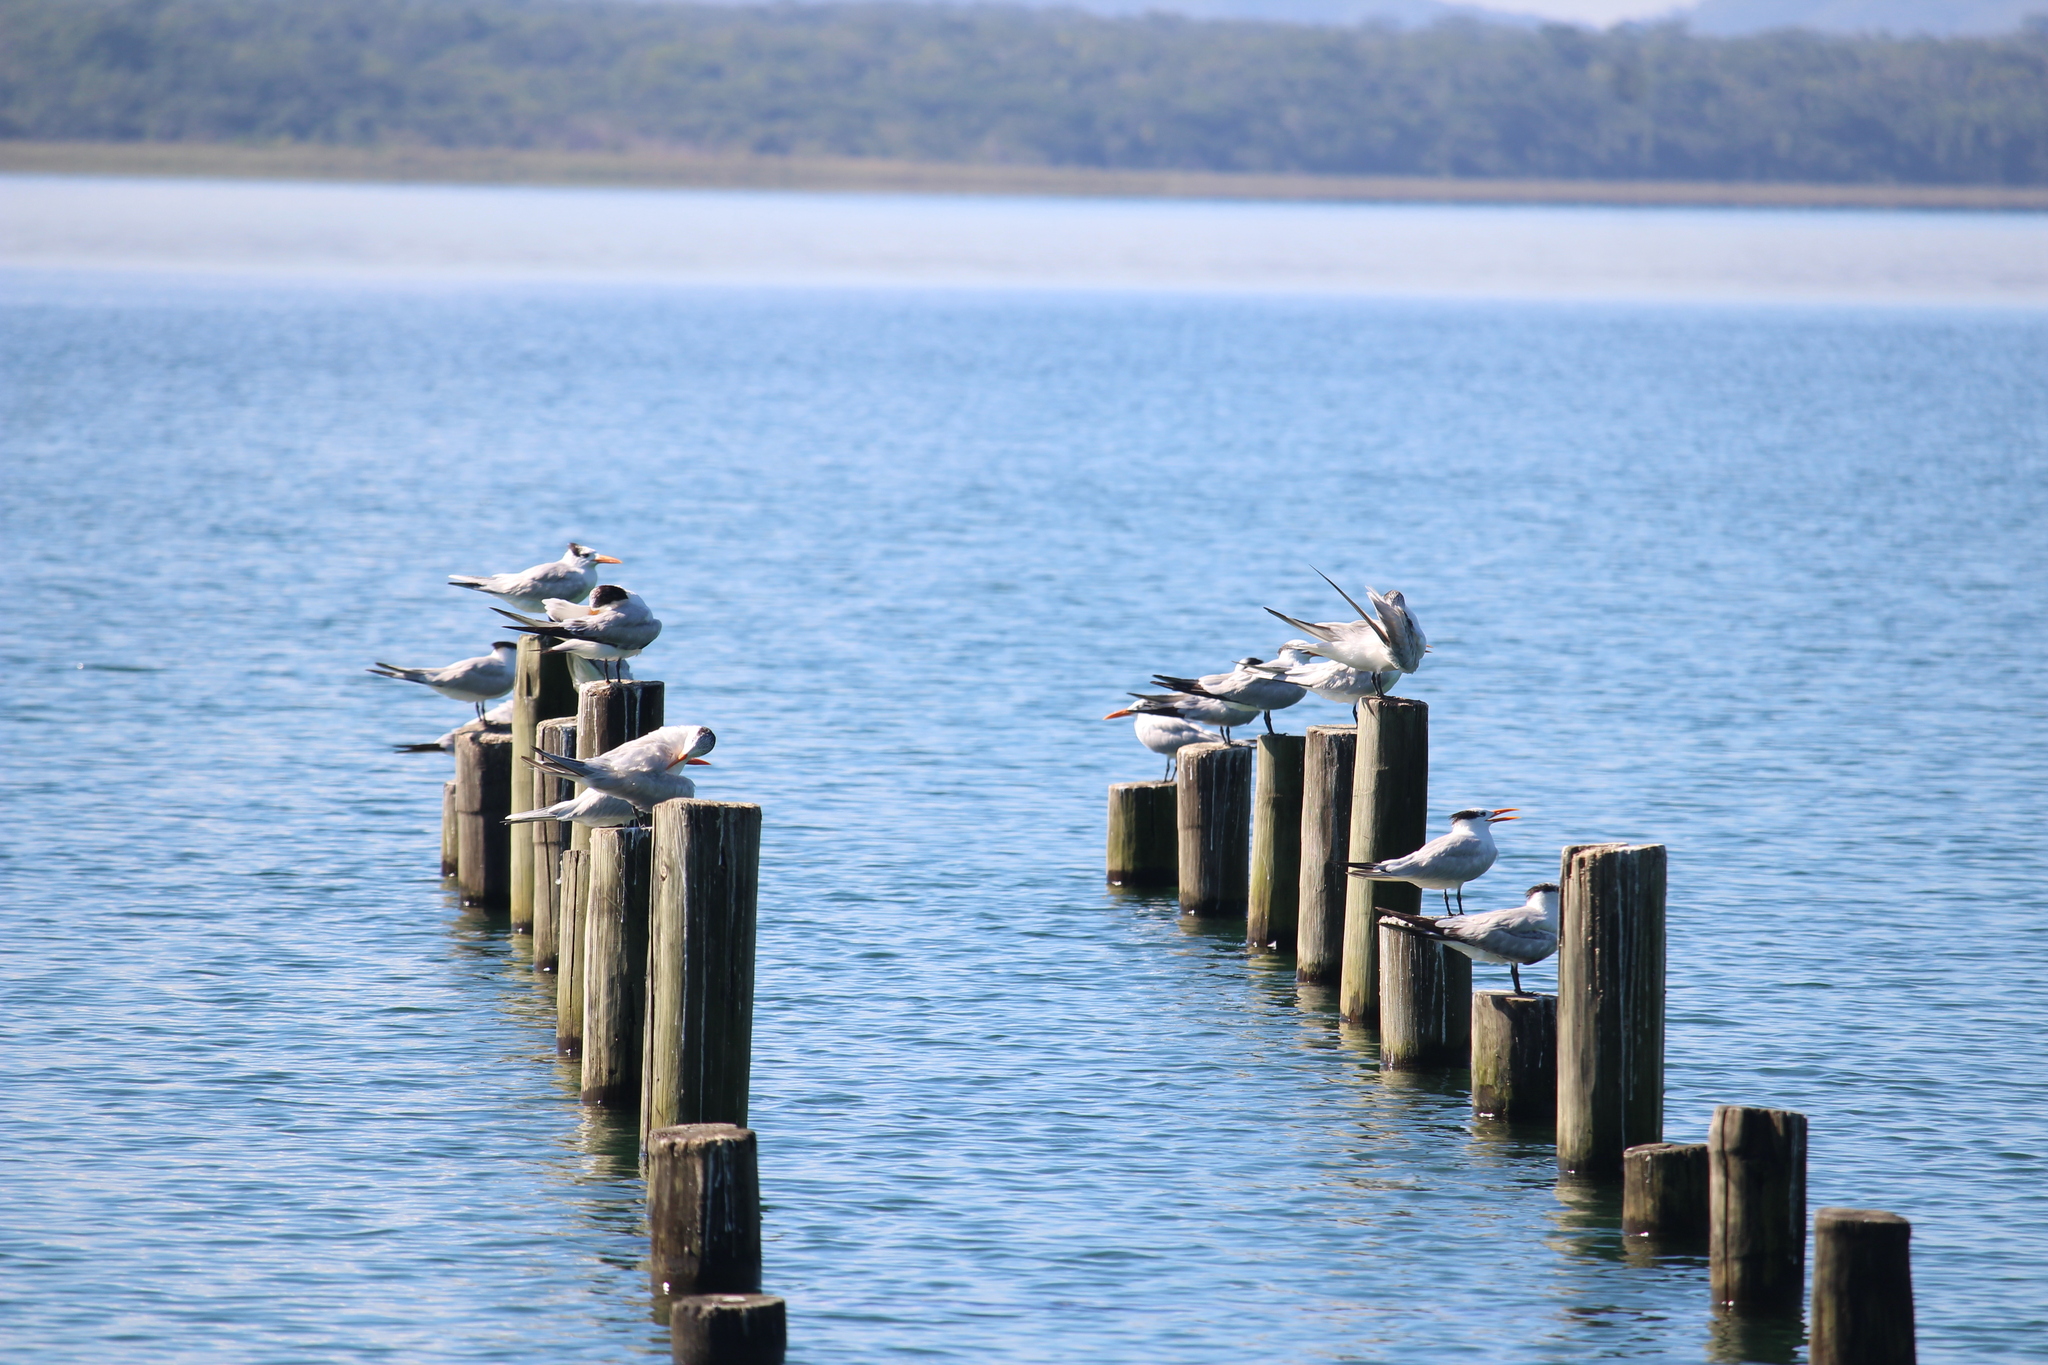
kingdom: Animalia
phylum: Chordata
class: Aves
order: Charadriiformes
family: Laridae
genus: Thalasseus
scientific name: Thalasseus maximus
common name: Royal tern
